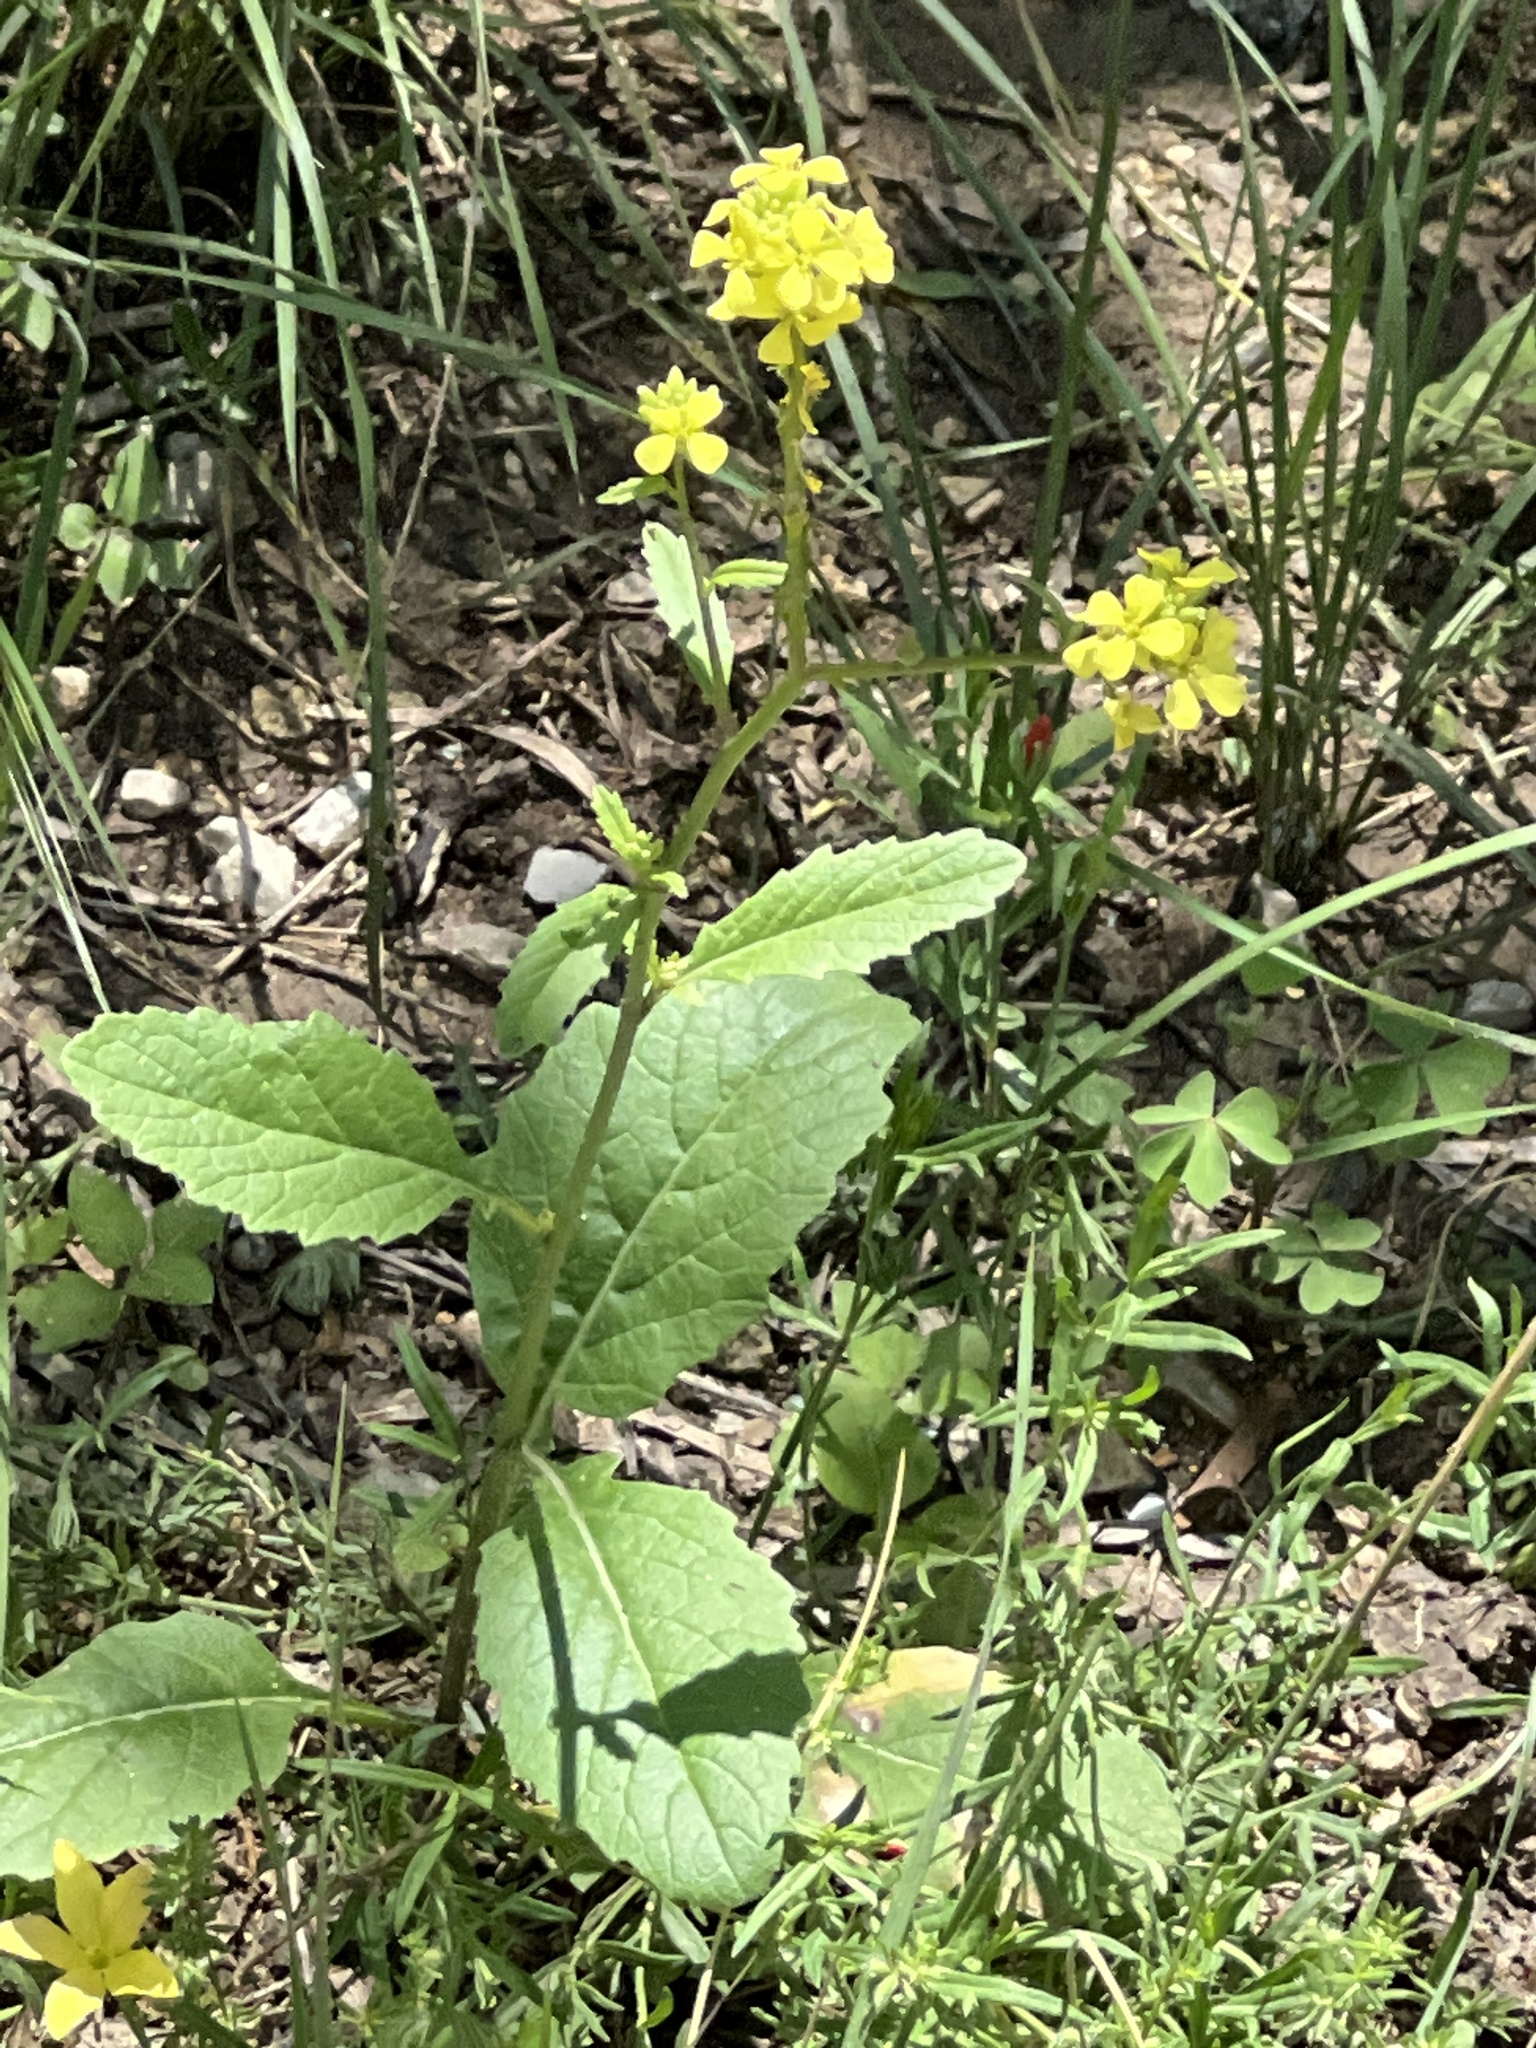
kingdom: Plantae
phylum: Tracheophyta
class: Magnoliopsida
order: Brassicales
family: Brassicaceae
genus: Rapistrum
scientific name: Rapistrum rugosum
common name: Annual bastardcabbage
